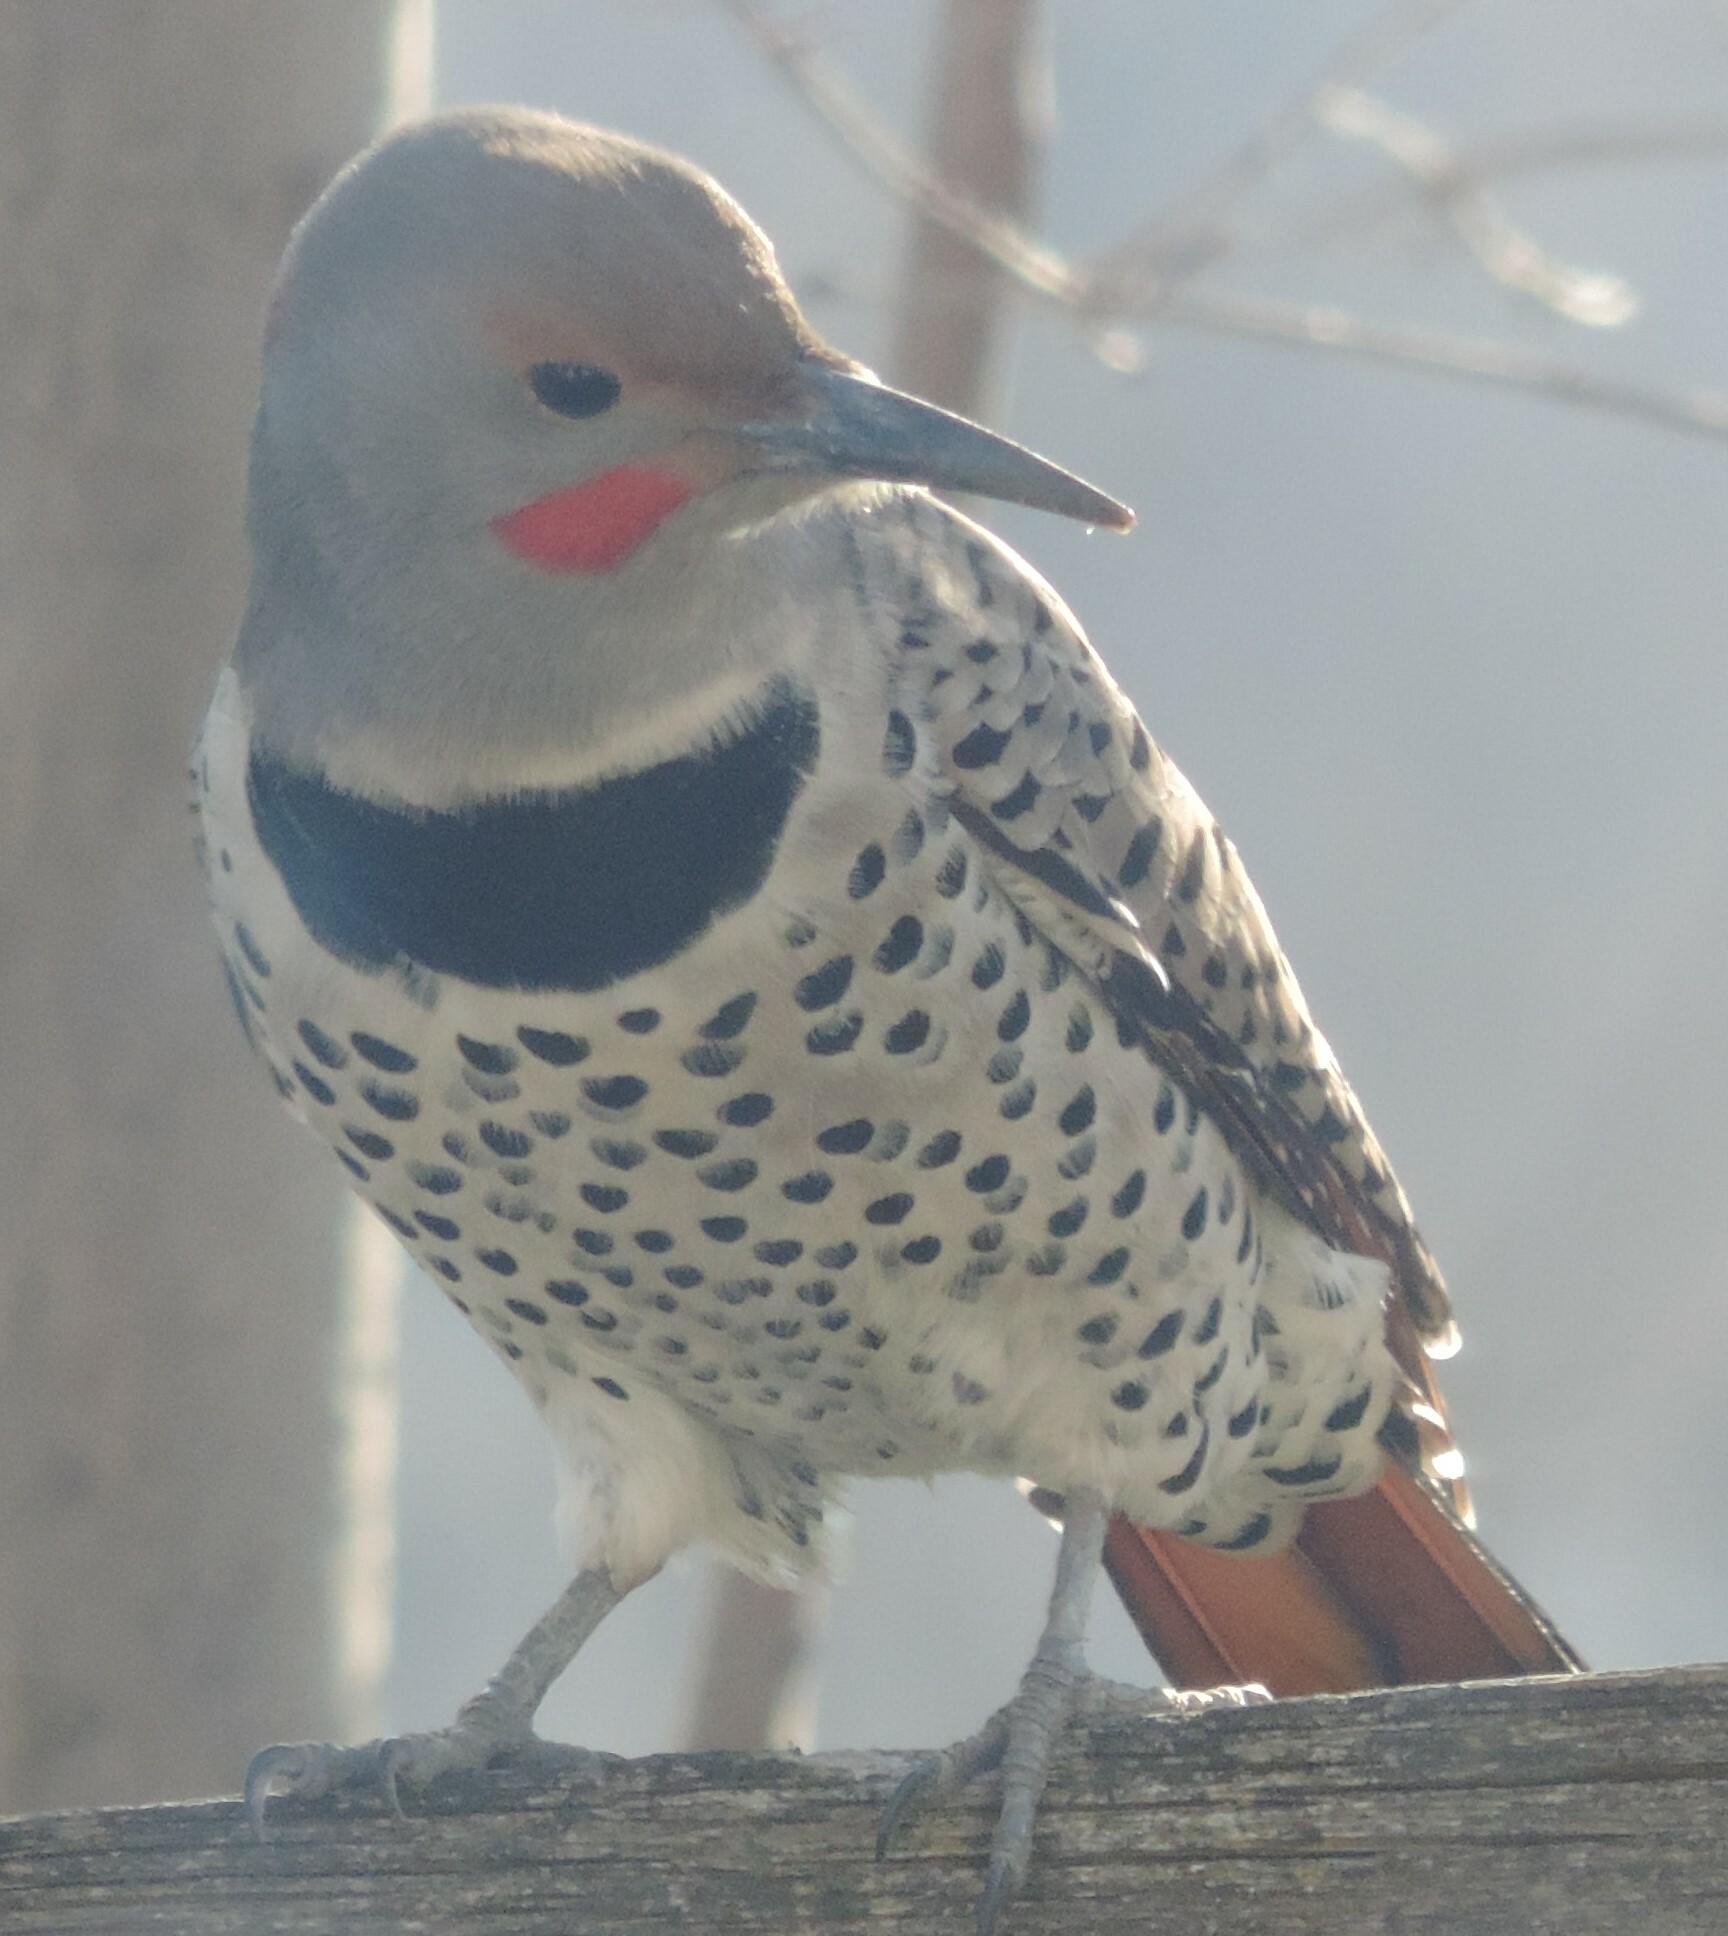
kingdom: Animalia
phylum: Chordata
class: Aves
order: Piciformes
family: Picidae
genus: Colaptes
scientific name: Colaptes
